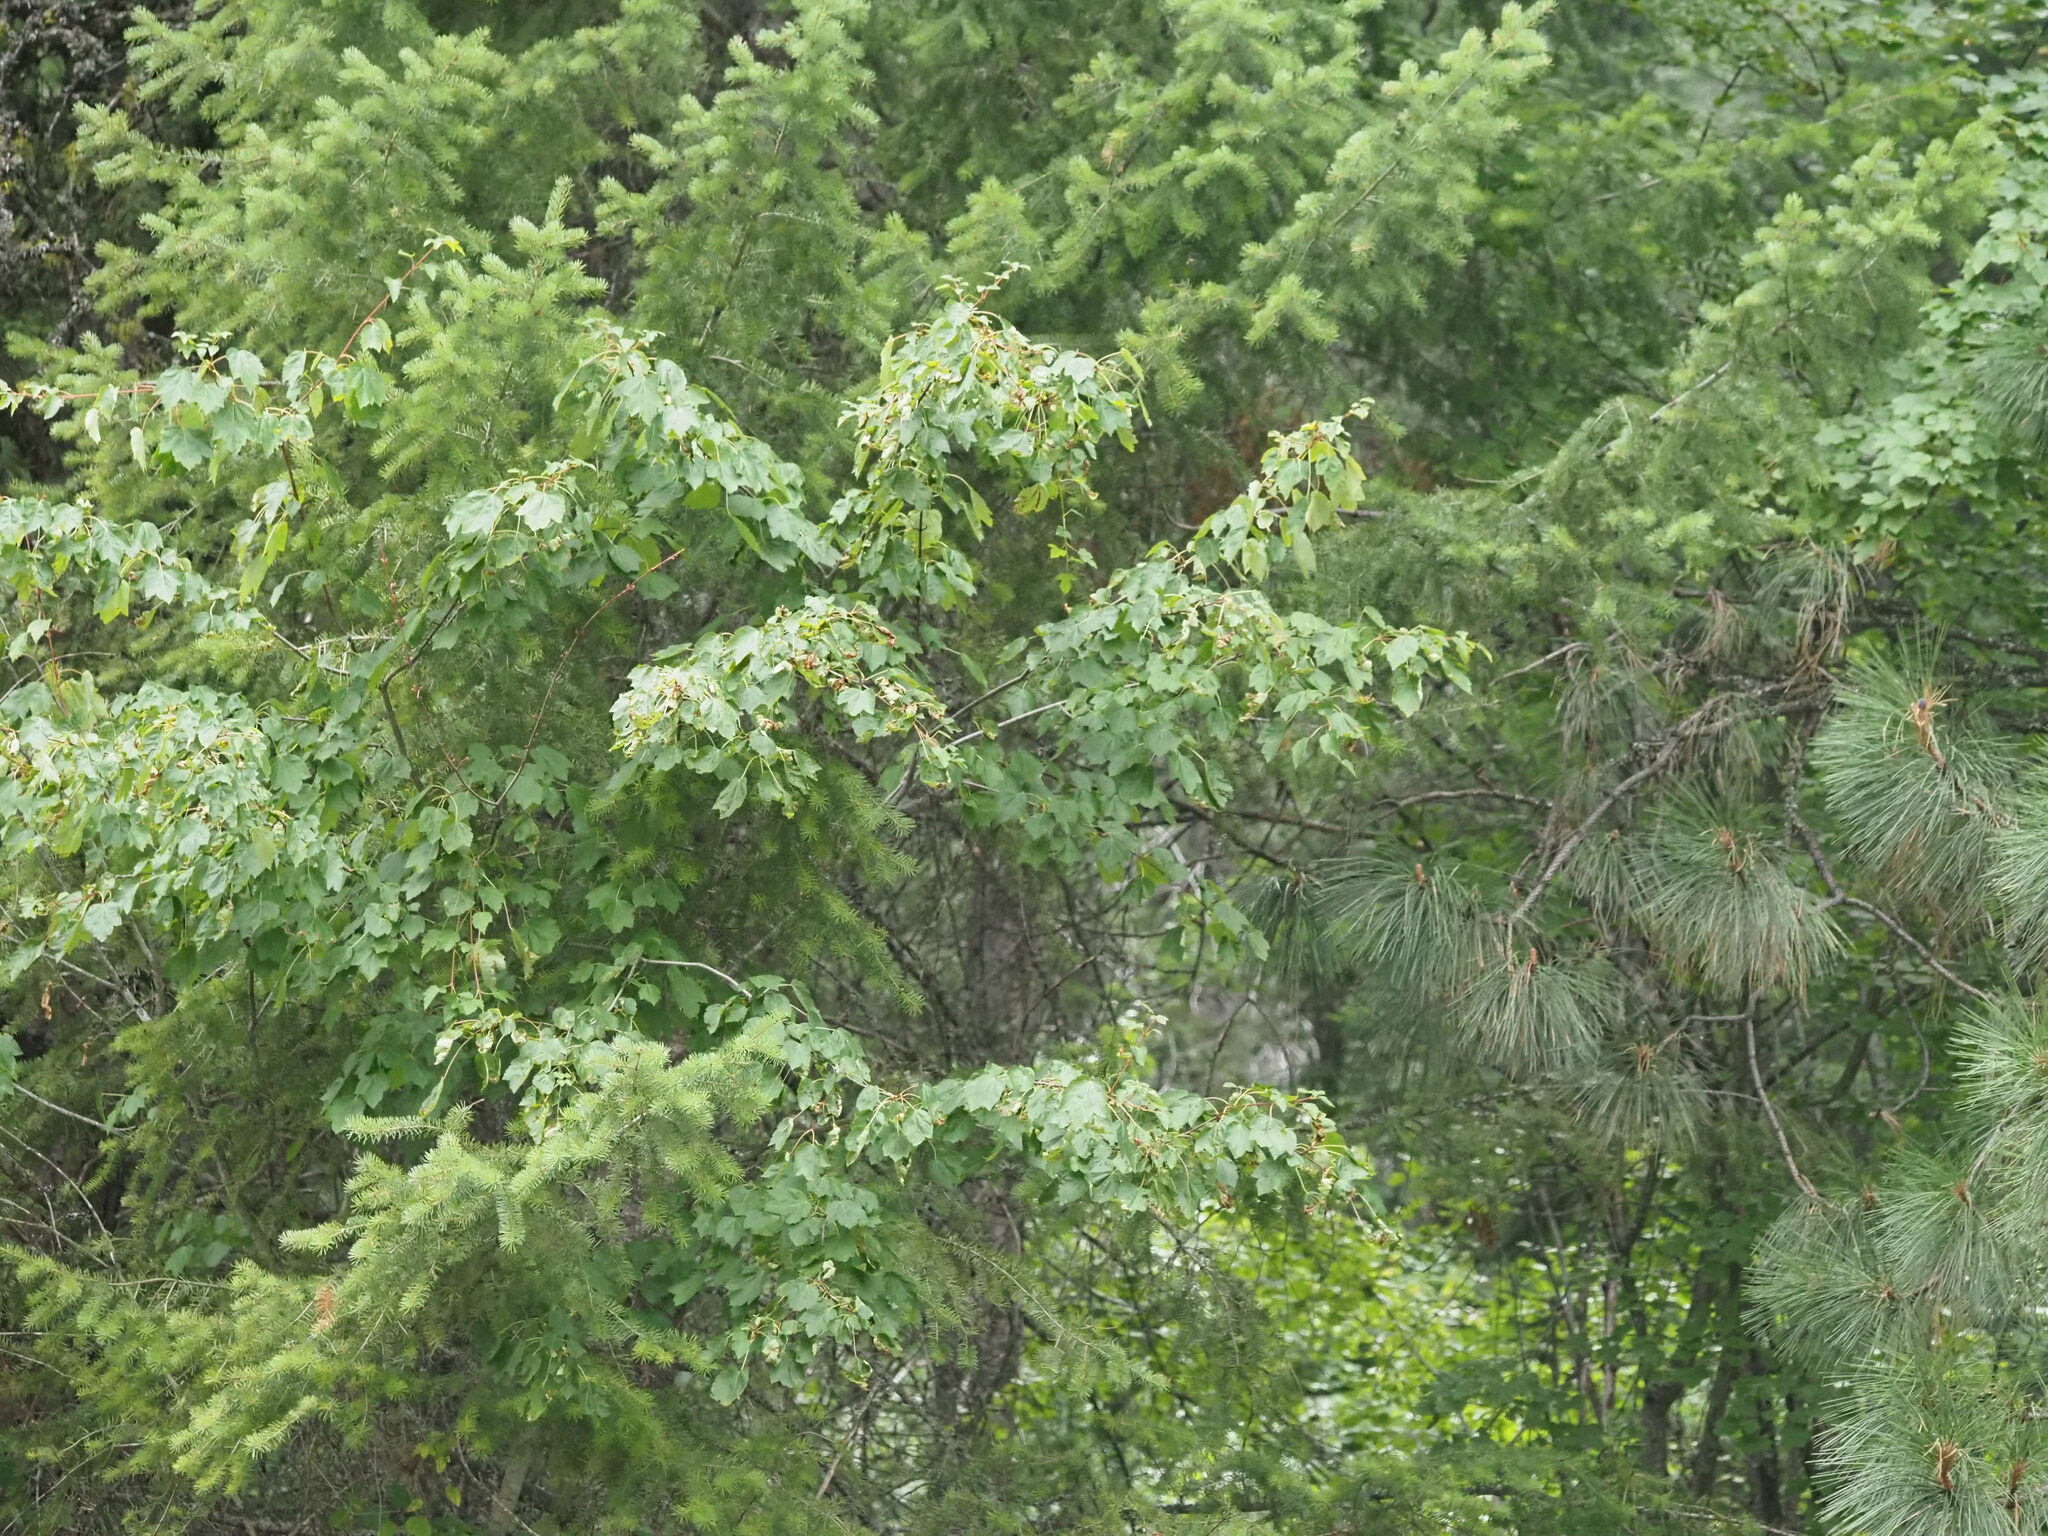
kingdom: Plantae
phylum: Tracheophyta
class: Magnoliopsida
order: Sapindales
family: Sapindaceae
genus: Acer
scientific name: Acer glabrum
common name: Rocky mountain maple
